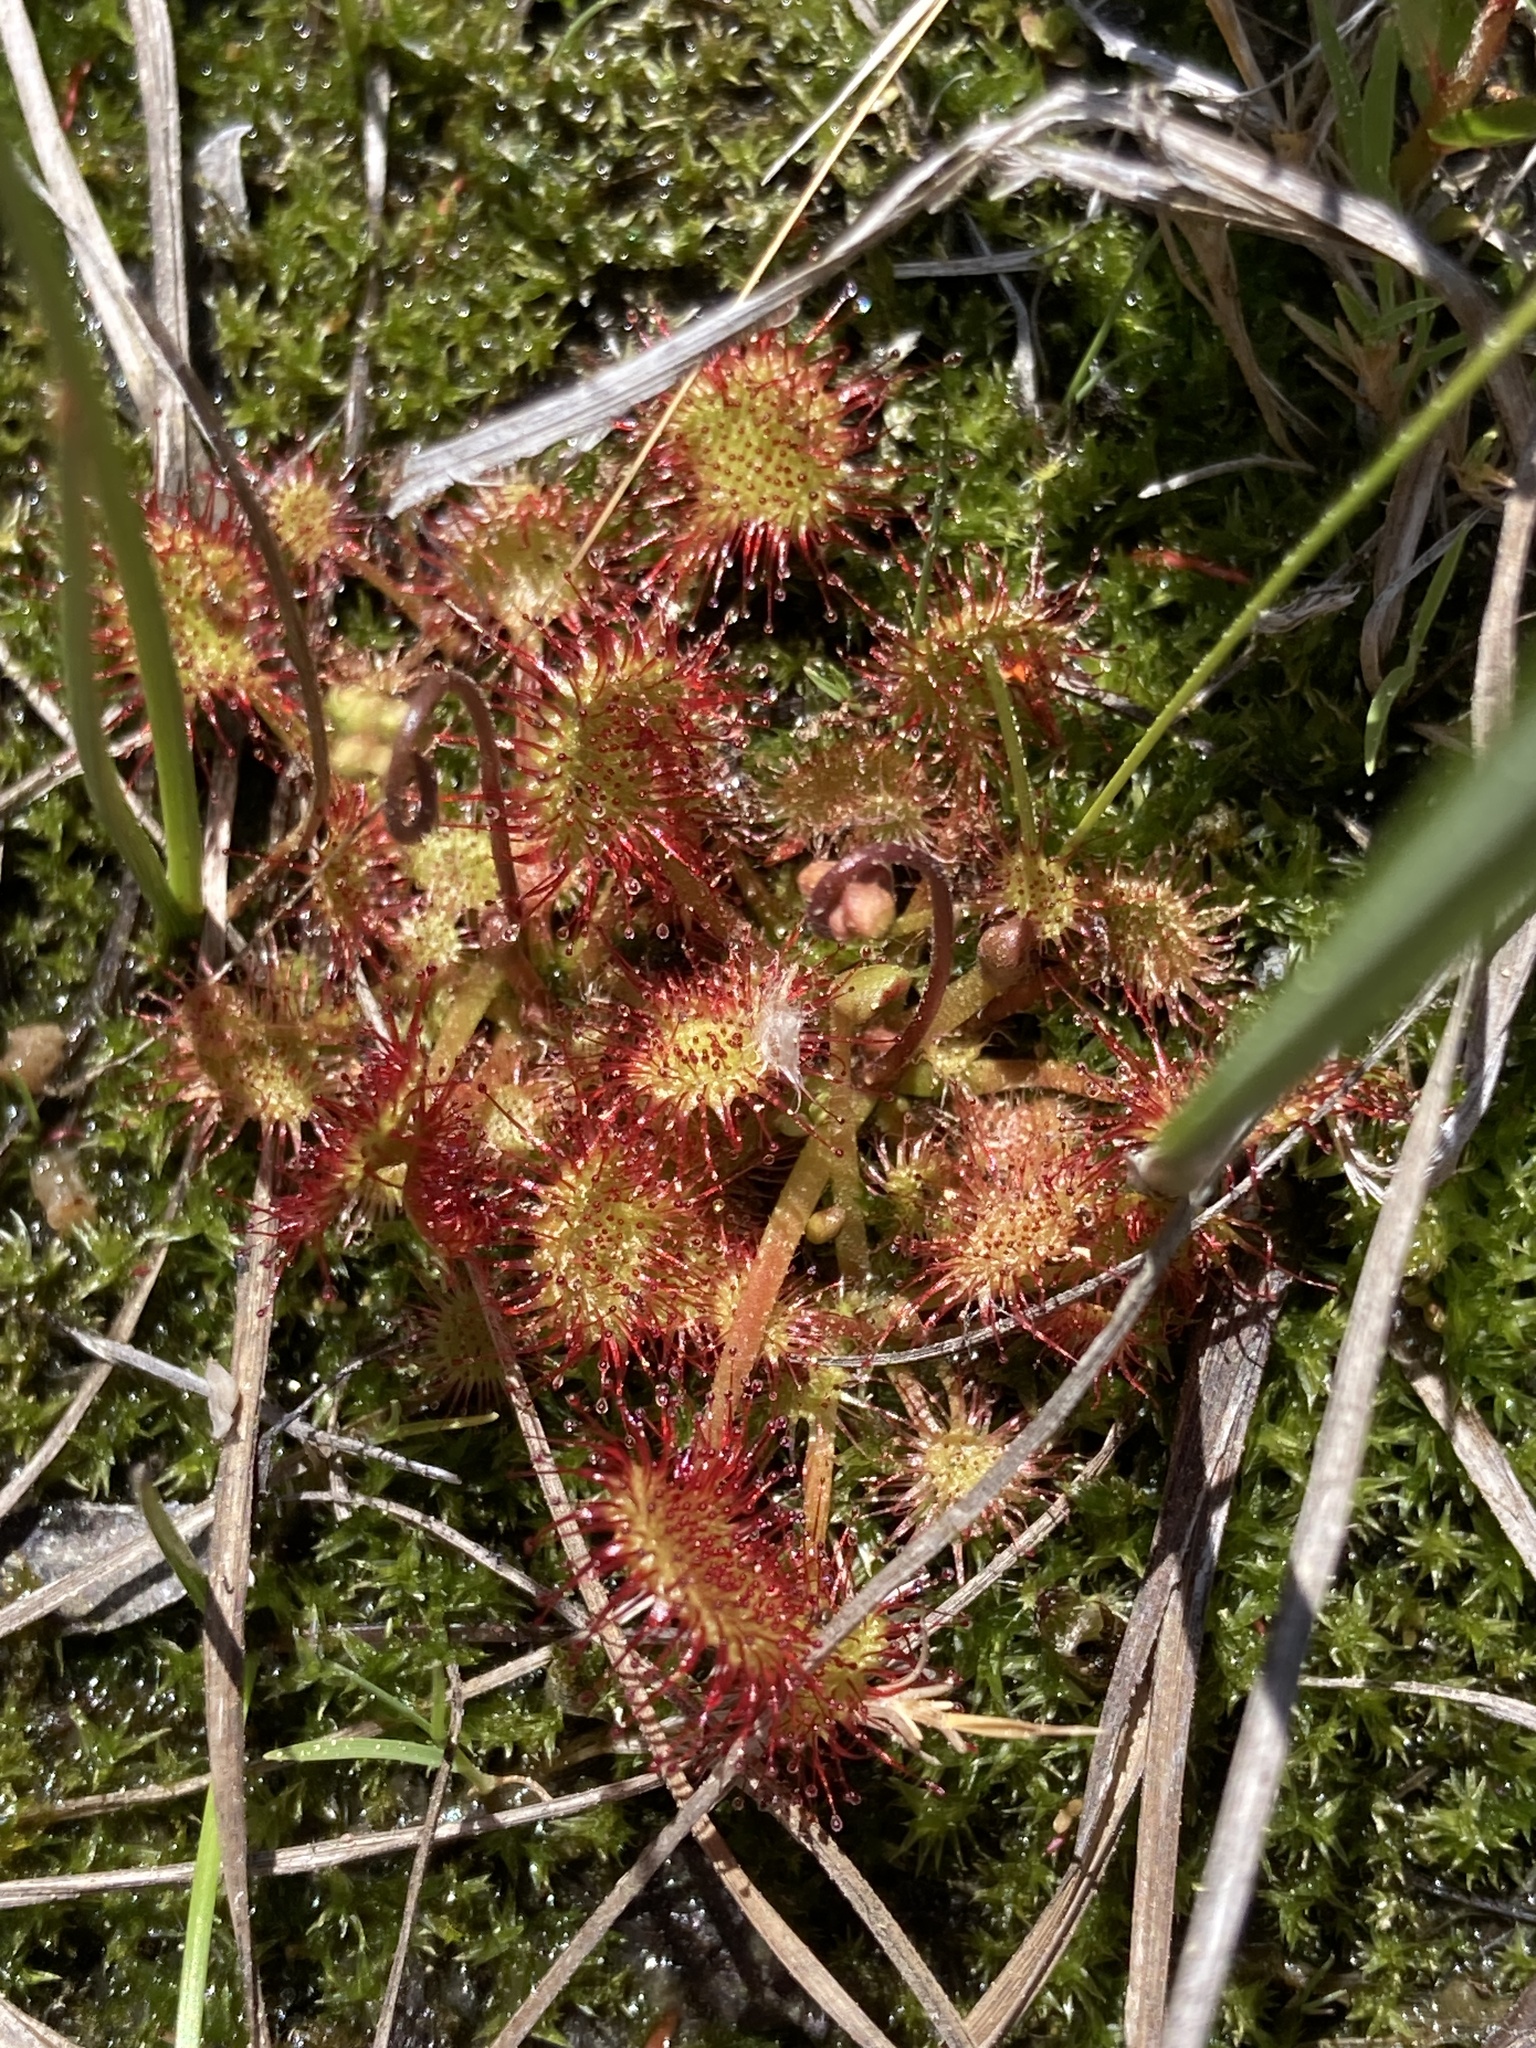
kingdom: Plantae
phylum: Tracheophyta
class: Magnoliopsida
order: Caryophyllales
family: Droseraceae
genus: Drosera
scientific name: Drosera rotundifolia
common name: Round-leaved sundew
